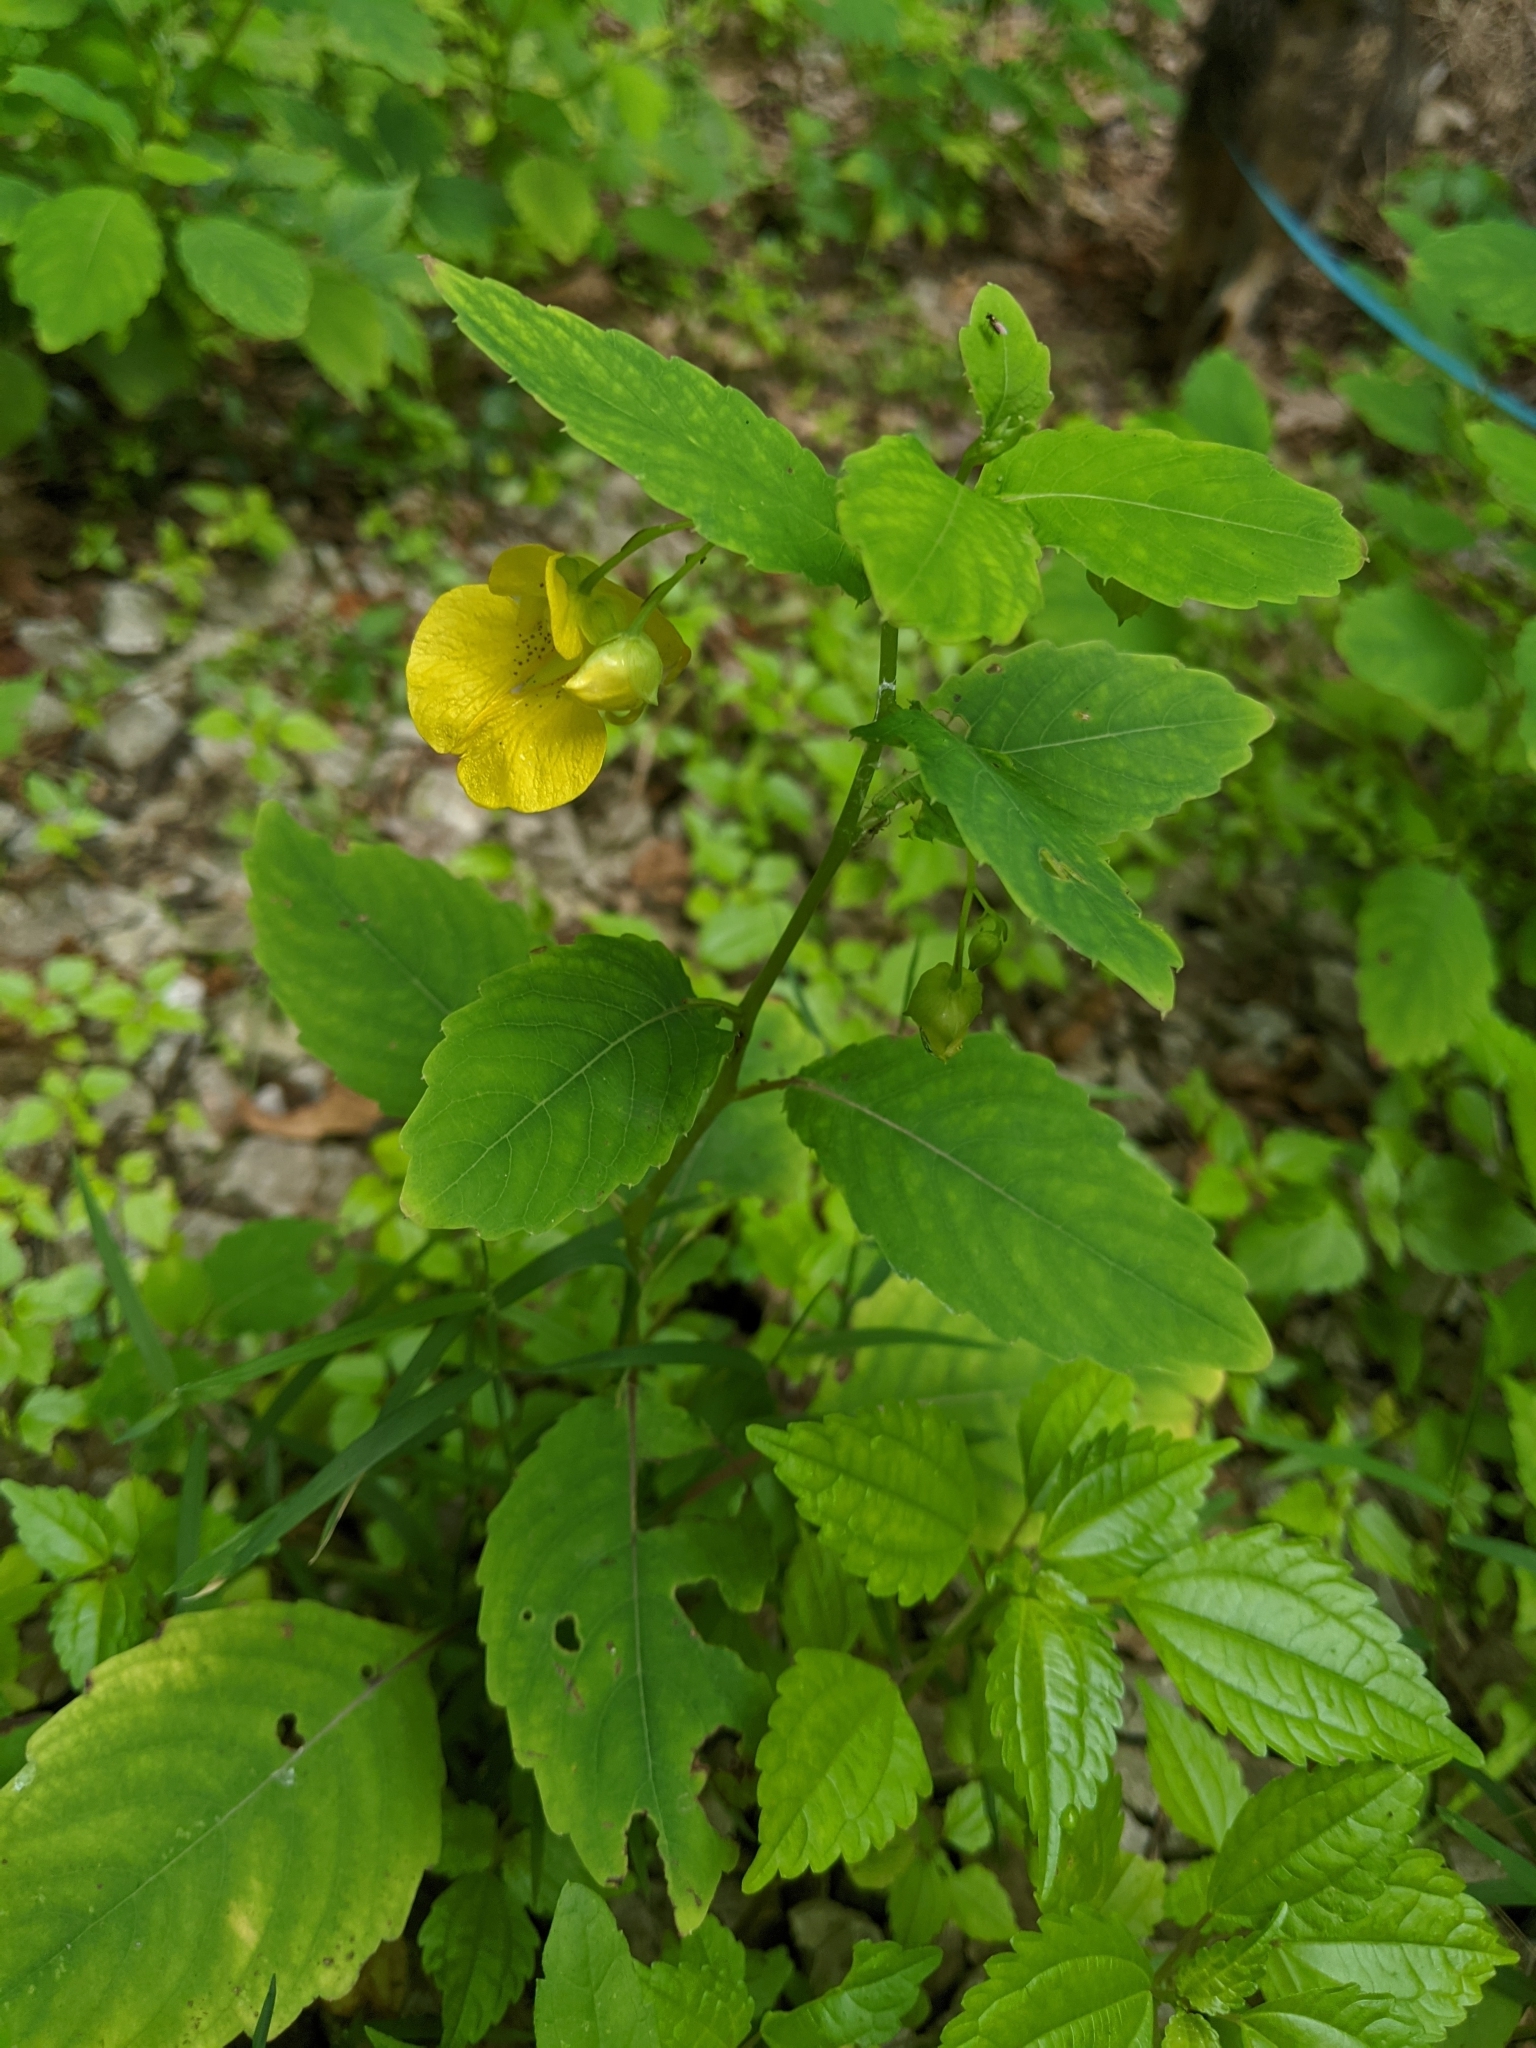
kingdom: Plantae
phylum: Tracheophyta
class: Magnoliopsida
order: Ericales
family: Balsaminaceae
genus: Impatiens
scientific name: Impatiens pallida
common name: Pale snapweed
